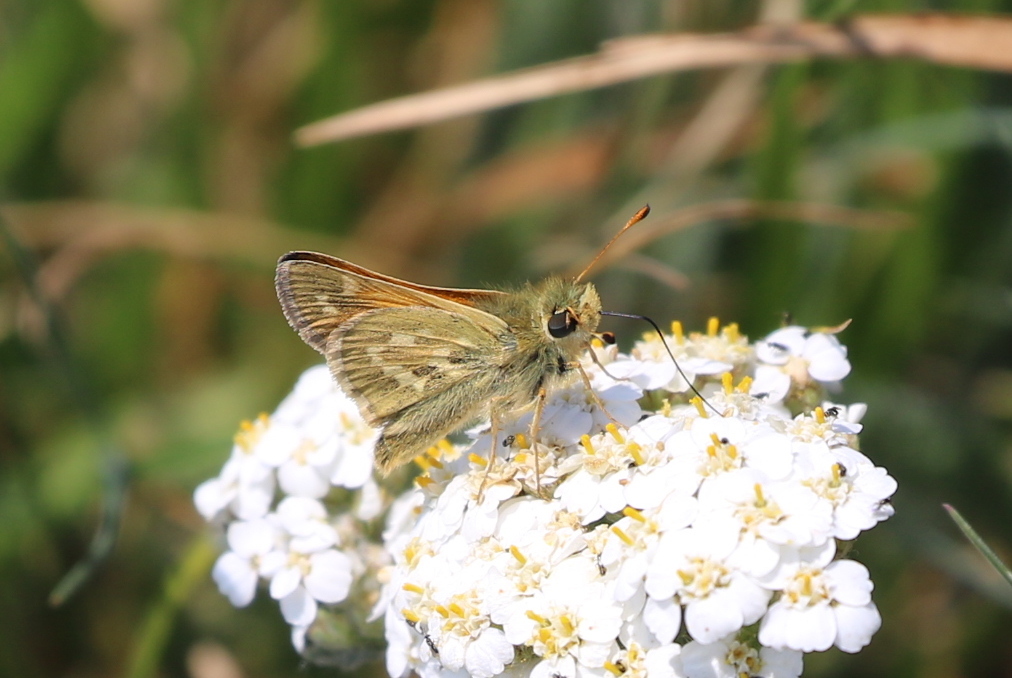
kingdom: Animalia
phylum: Arthropoda
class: Insecta
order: Lepidoptera
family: Hesperiidae
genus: Ochlodes
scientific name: Ochlodes sylvanoides
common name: Woodland skipper
